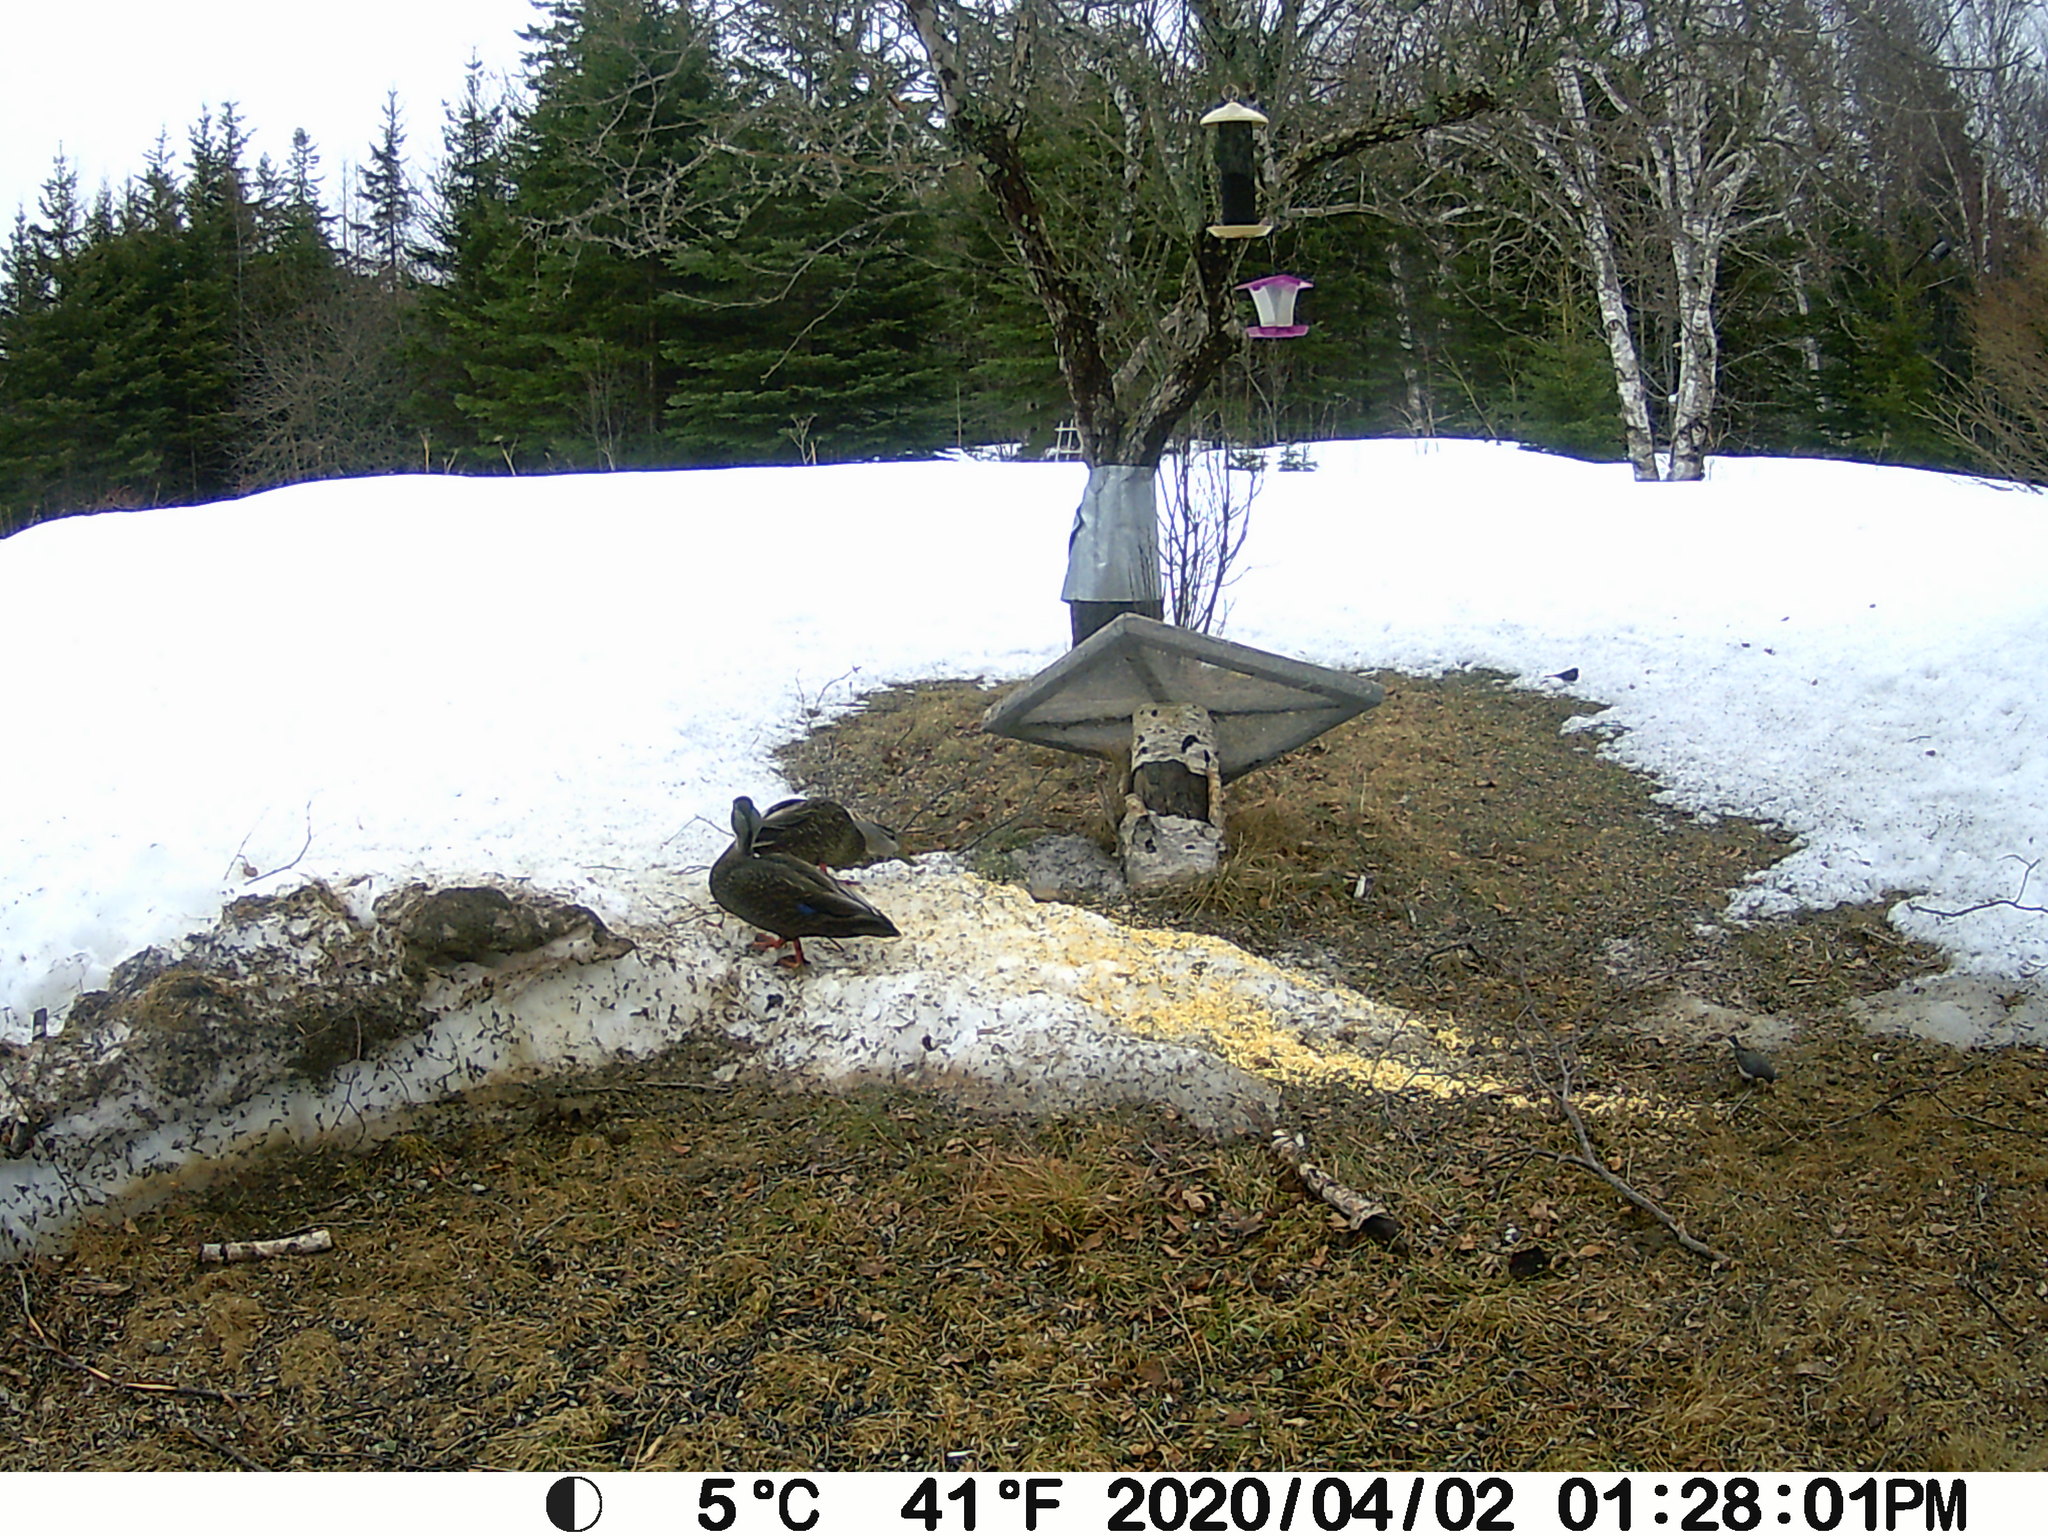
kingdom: Animalia
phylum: Chordata
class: Aves
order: Anseriformes
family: Anatidae
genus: Anas
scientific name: Anas rubripes
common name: American black duck
